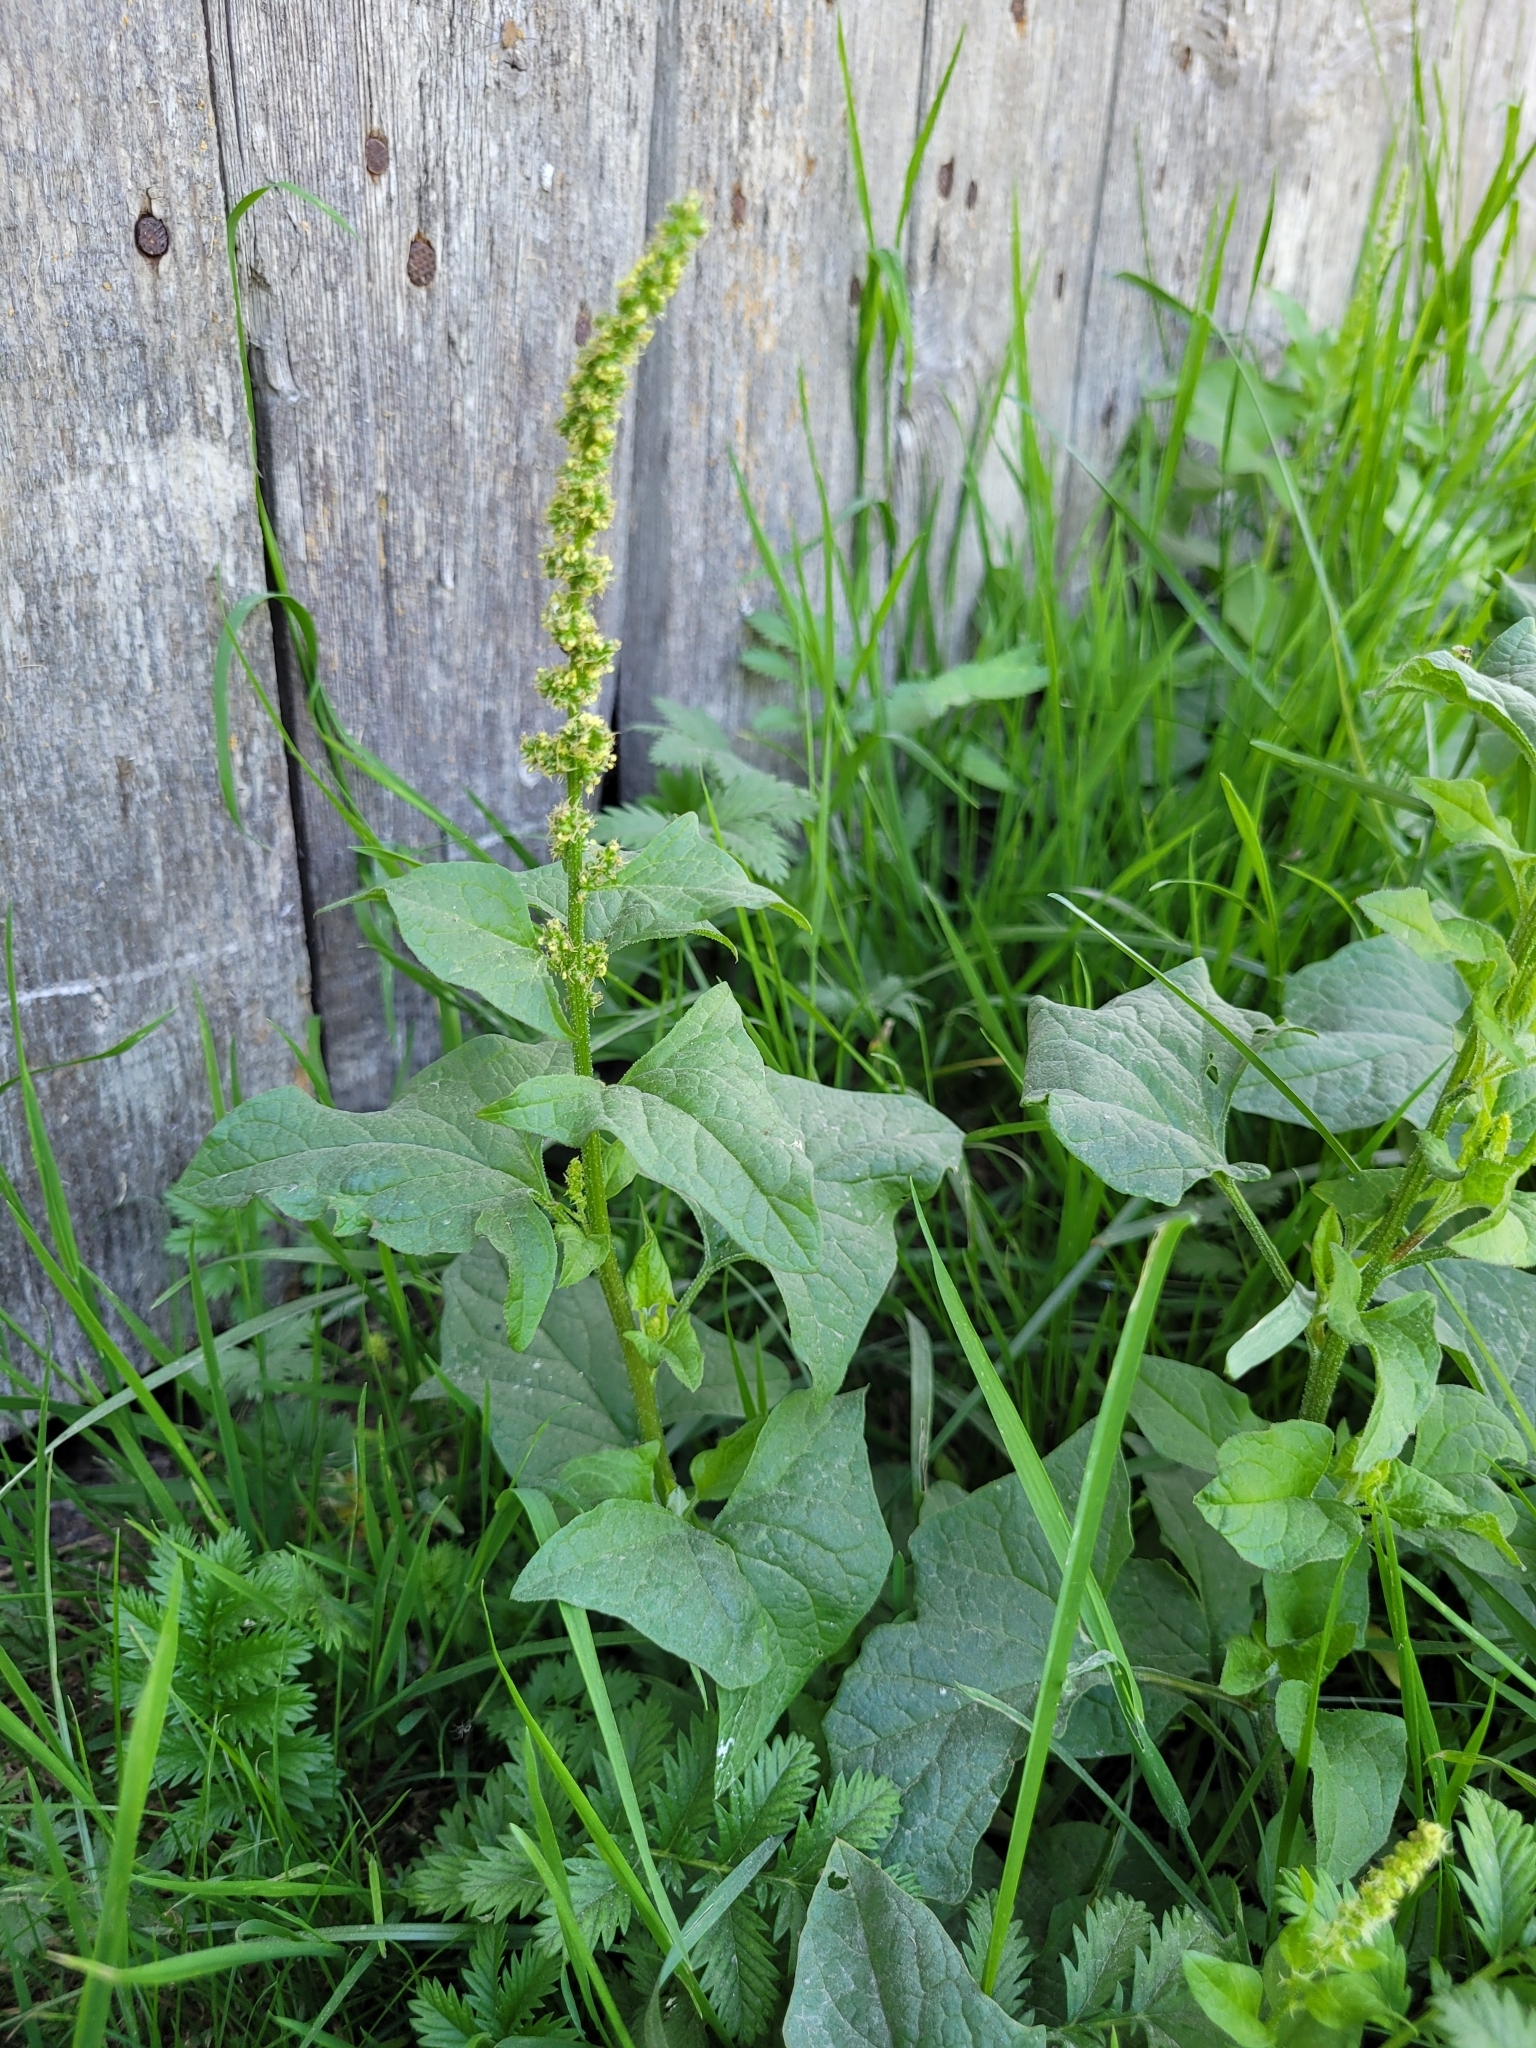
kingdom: Plantae
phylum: Tracheophyta
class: Magnoliopsida
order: Caryophyllales
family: Amaranthaceae
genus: Blitum
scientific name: Blitum bonus-henricus
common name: Good king henry
